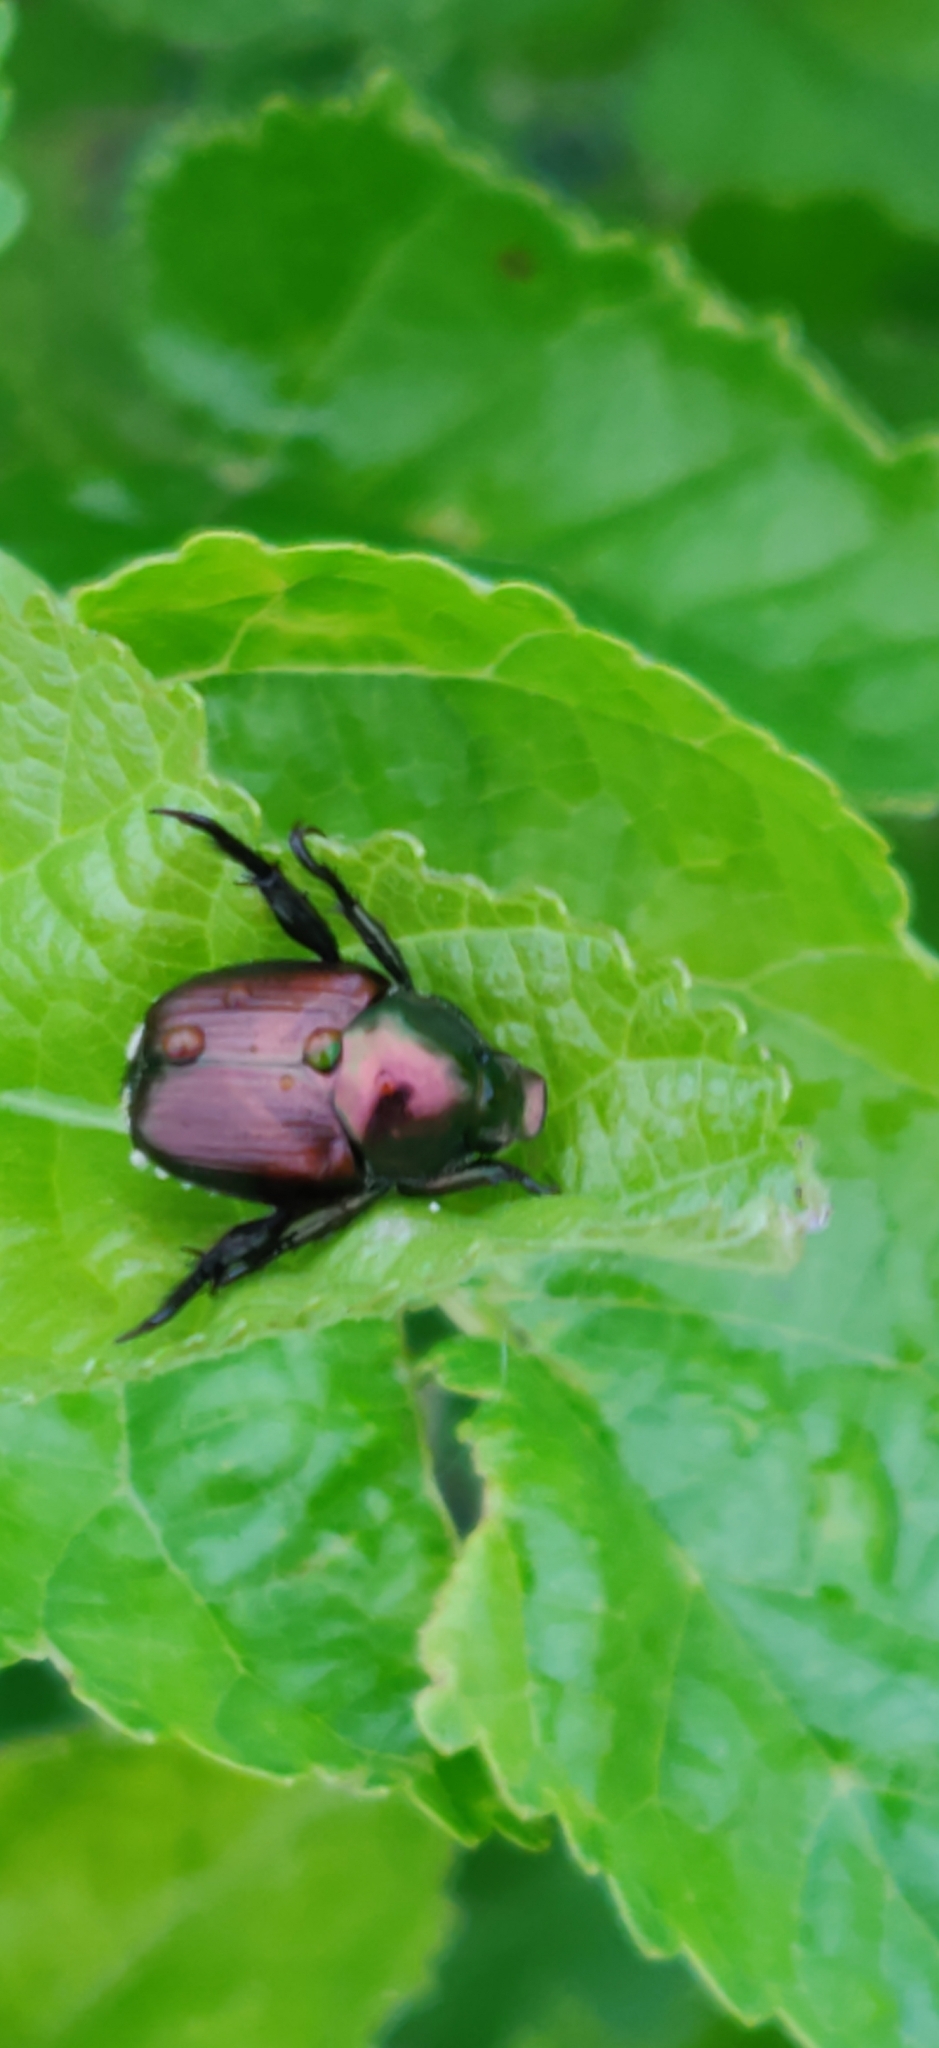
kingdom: Animalia
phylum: Arthropoda
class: Insecta
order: Coleoptera
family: Scarabaeidae
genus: Popillia
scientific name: Popillia japonica
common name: Japanese beetle
